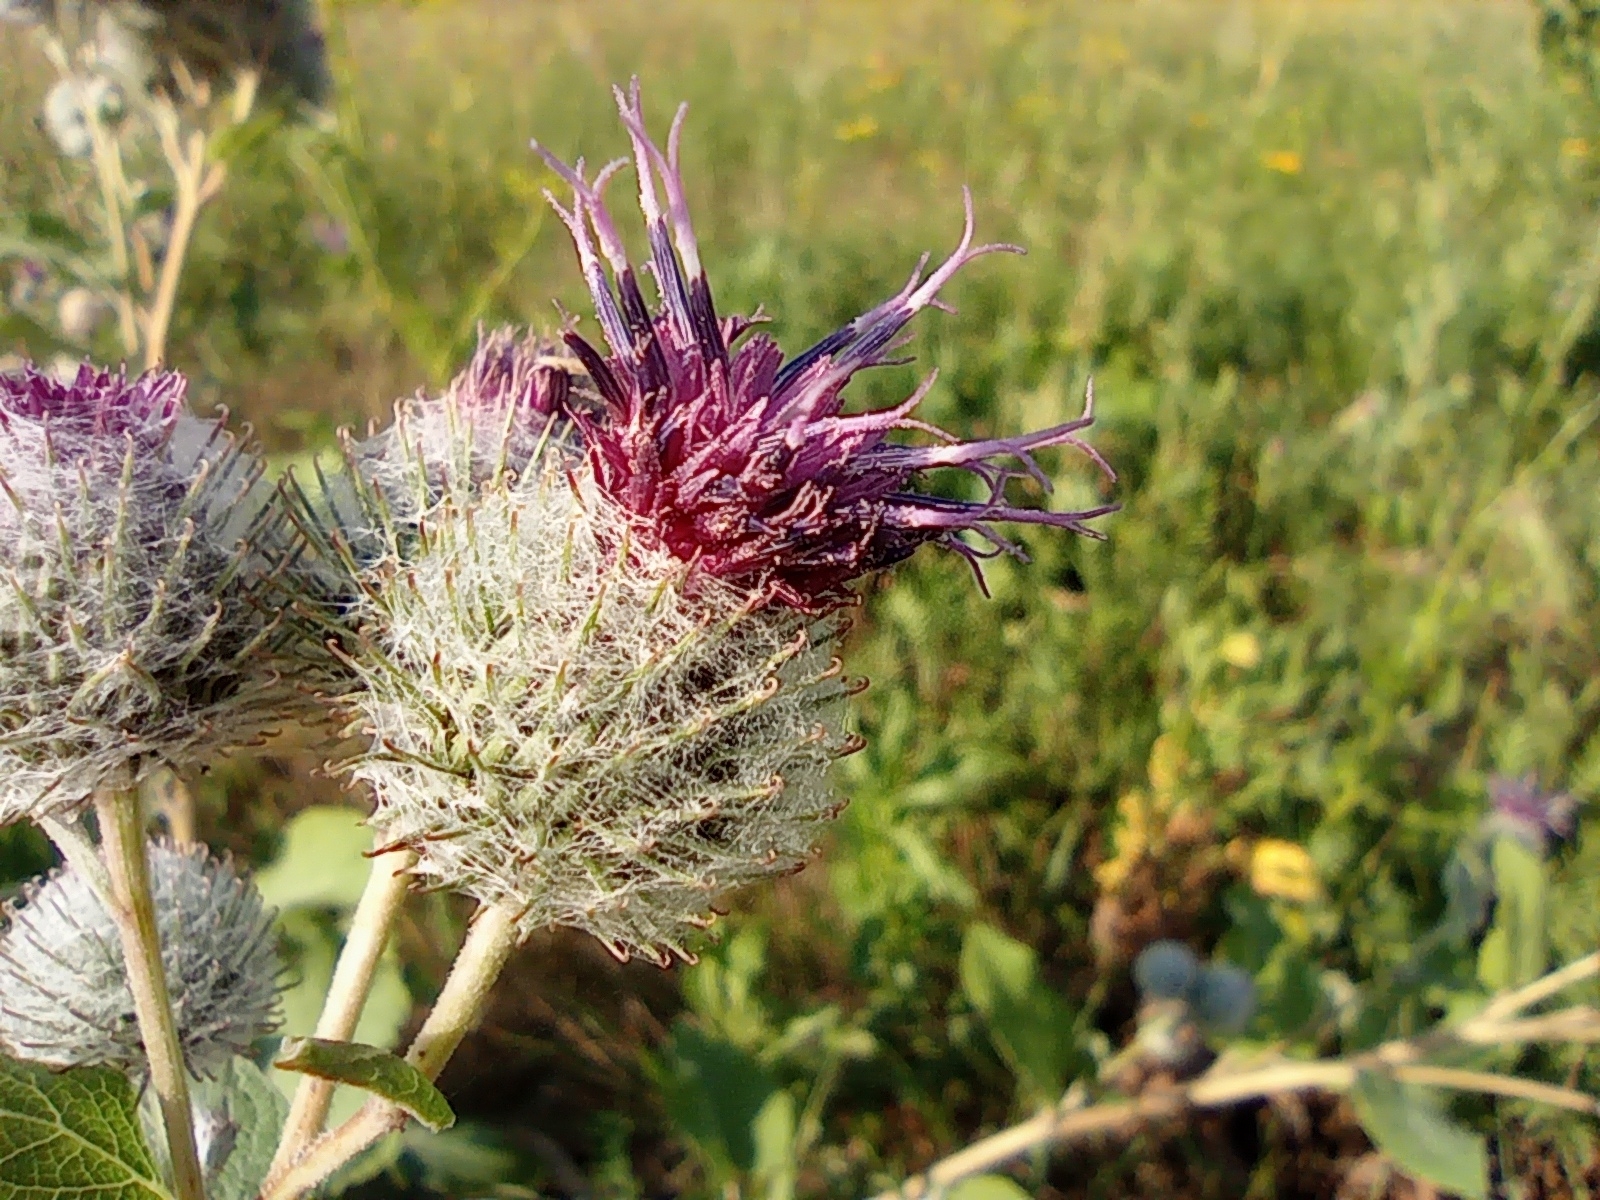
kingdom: Plantae
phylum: Tracheophyta
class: Magnoliopsida
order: Asterales
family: Asteraceae
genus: Arctium
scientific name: Arctium tomentosum
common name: Woolly burdock
